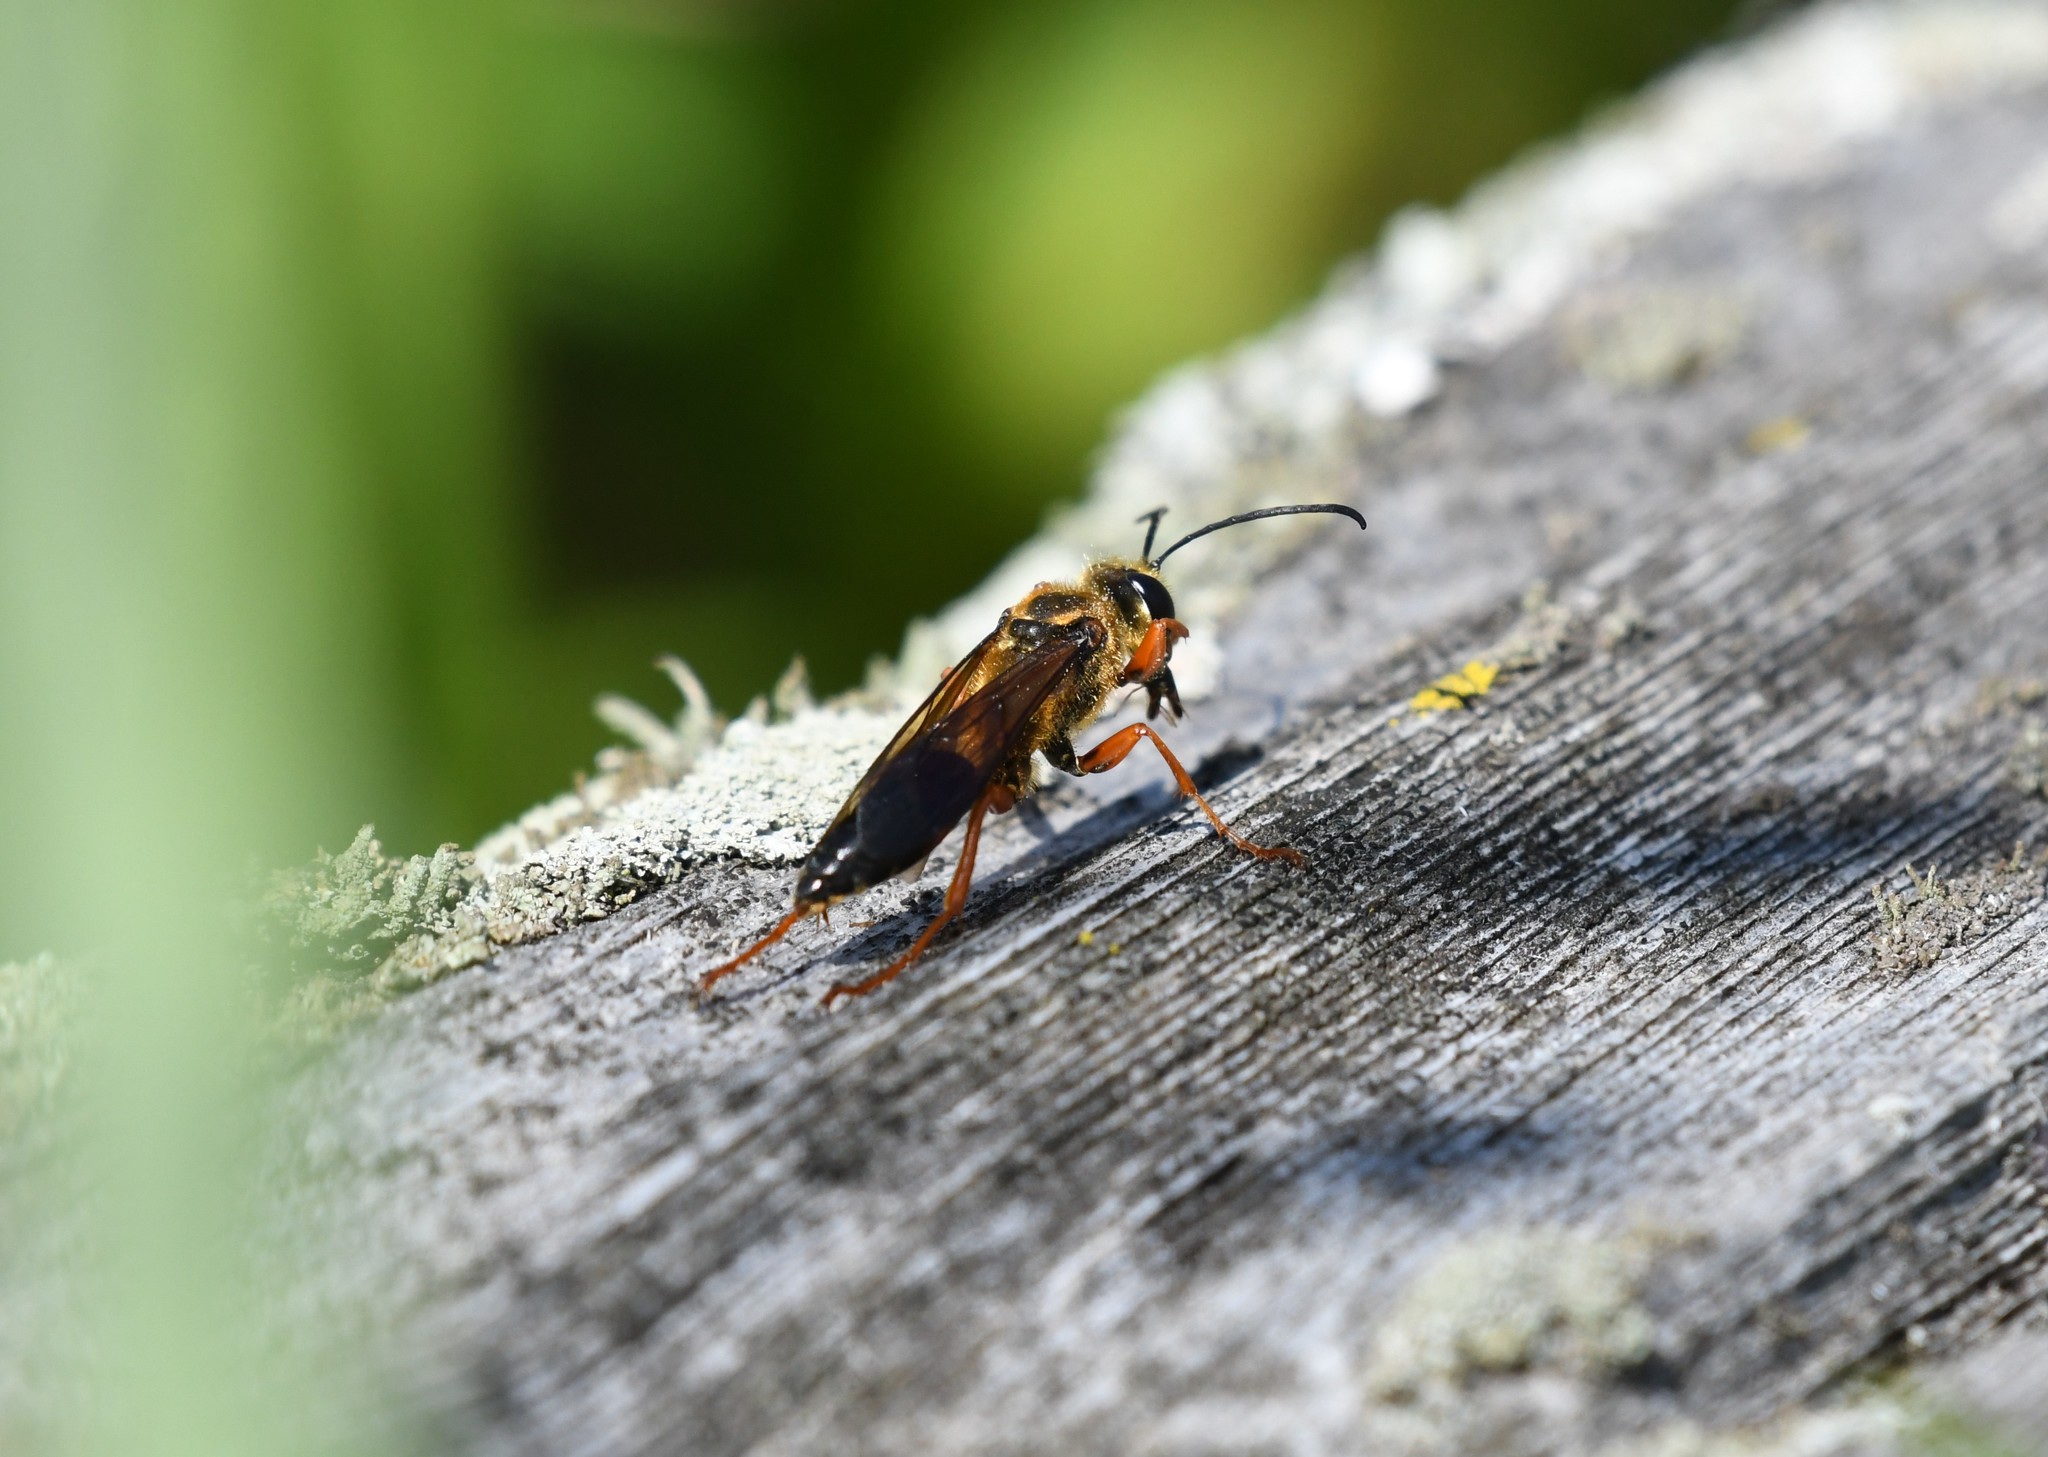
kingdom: Animalia
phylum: Arthropoda
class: Insecta
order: Hymenoptera
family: Sphecidae
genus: Sphex
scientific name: Sphex ichneumoneus
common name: Great golden digger wasp
